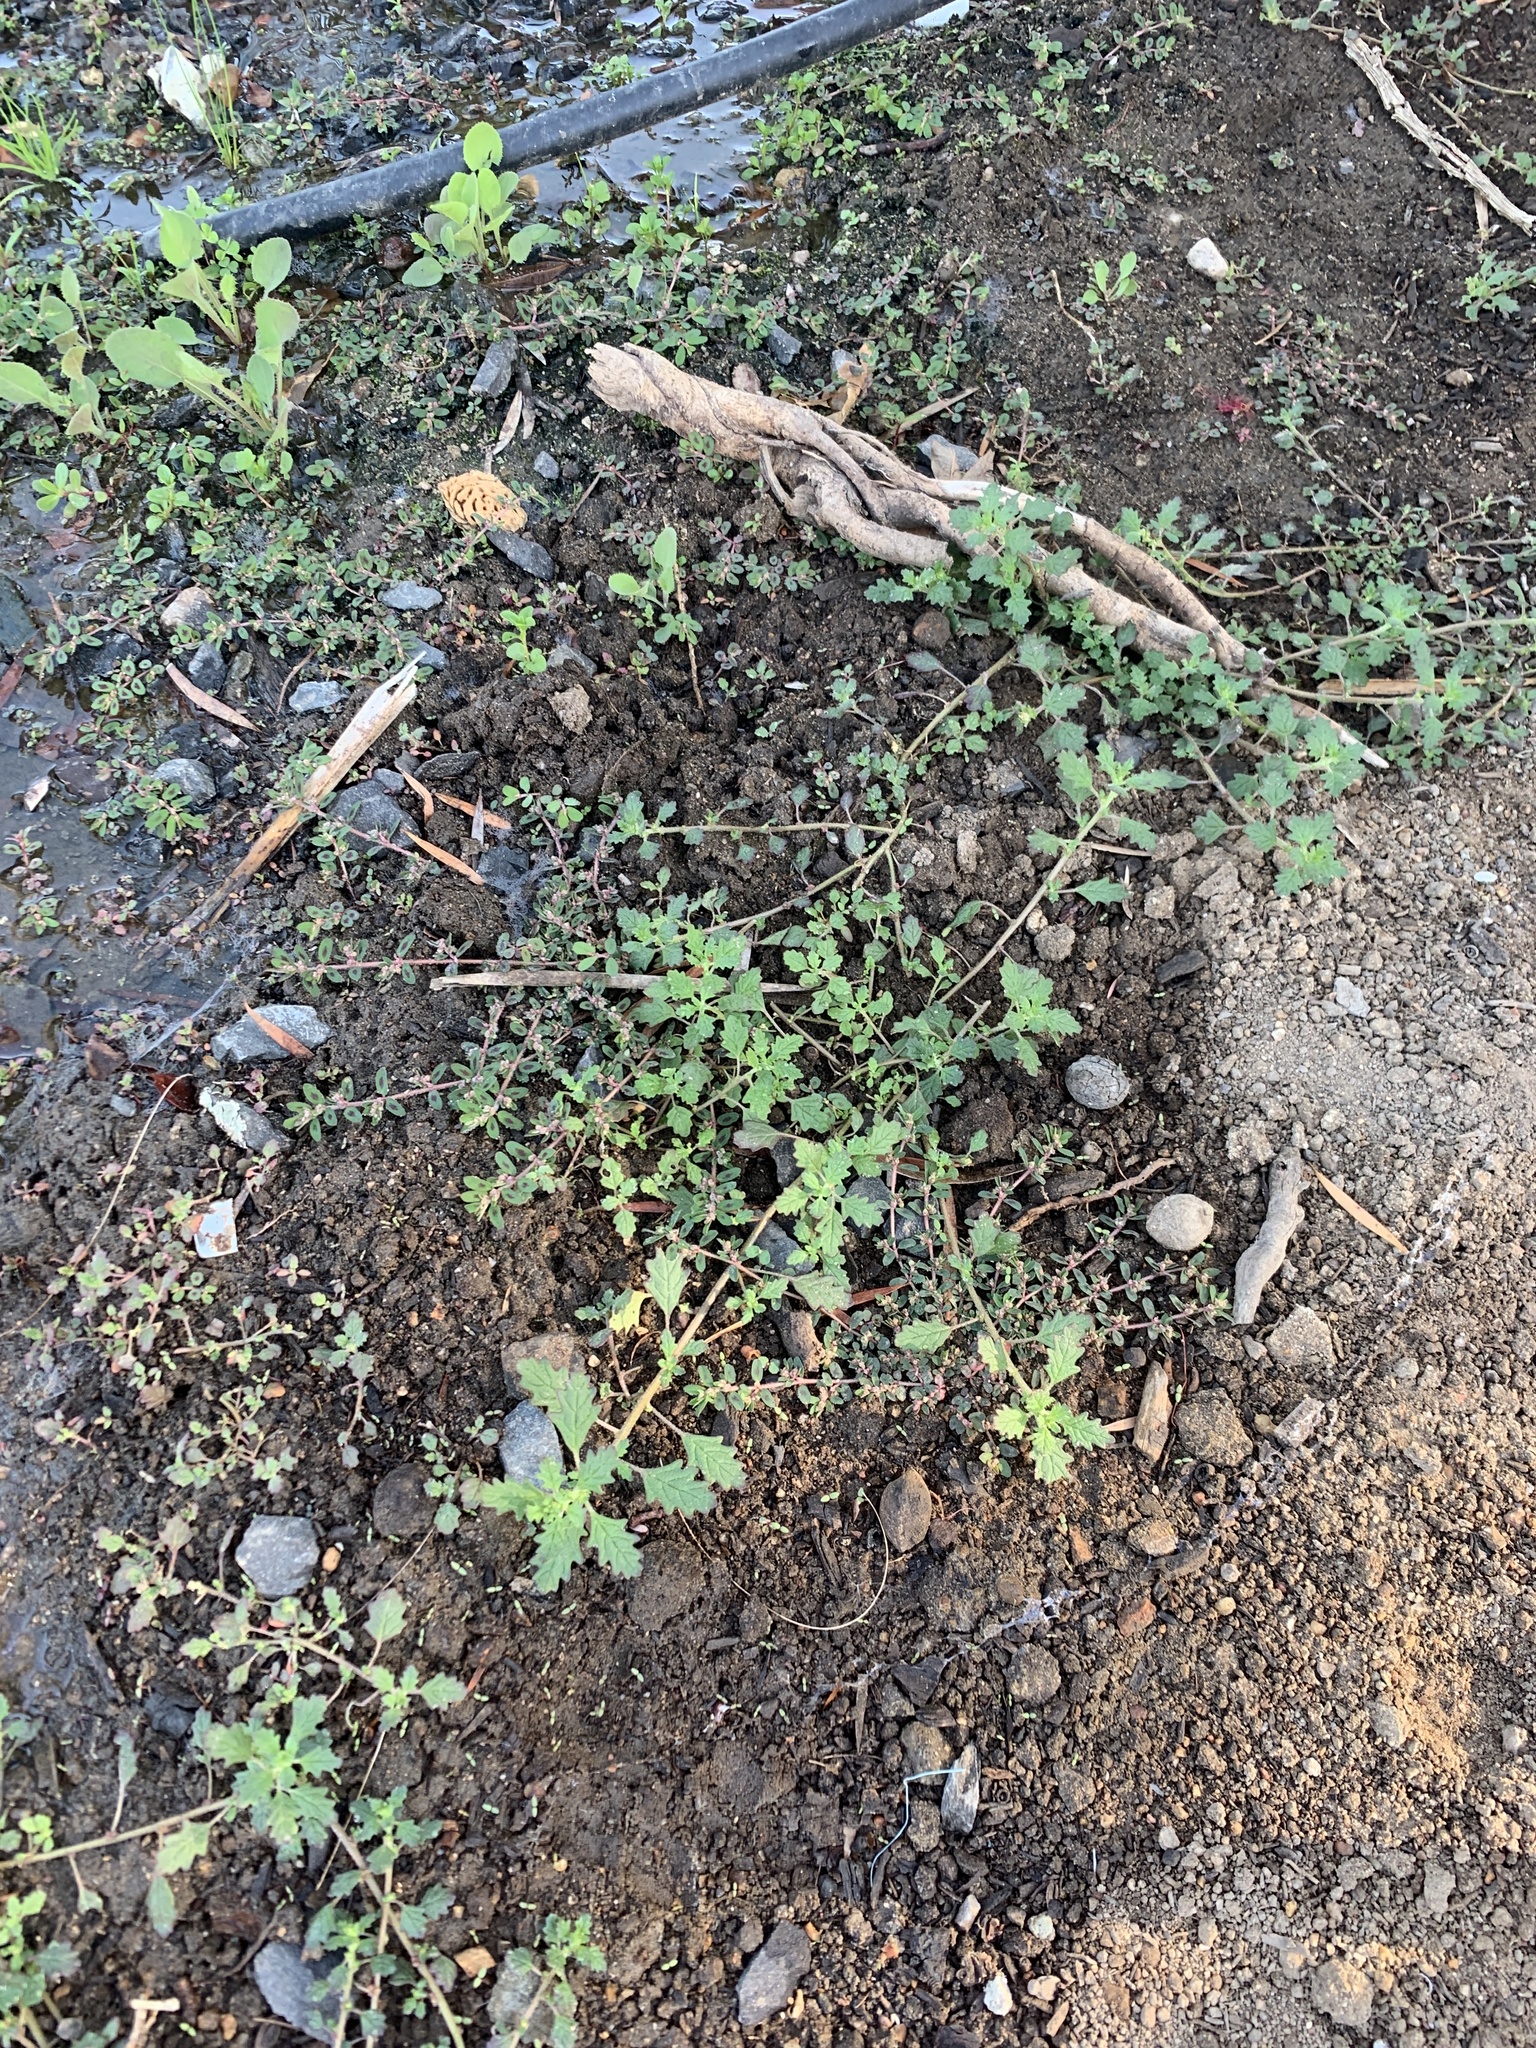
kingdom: Plantae
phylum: Tracheophyta
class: Magnoliopsida
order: Caryophyllales
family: Amaranthaceae
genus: Dysphania
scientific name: Dysphania pumilio
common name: Clammy goosefoot
